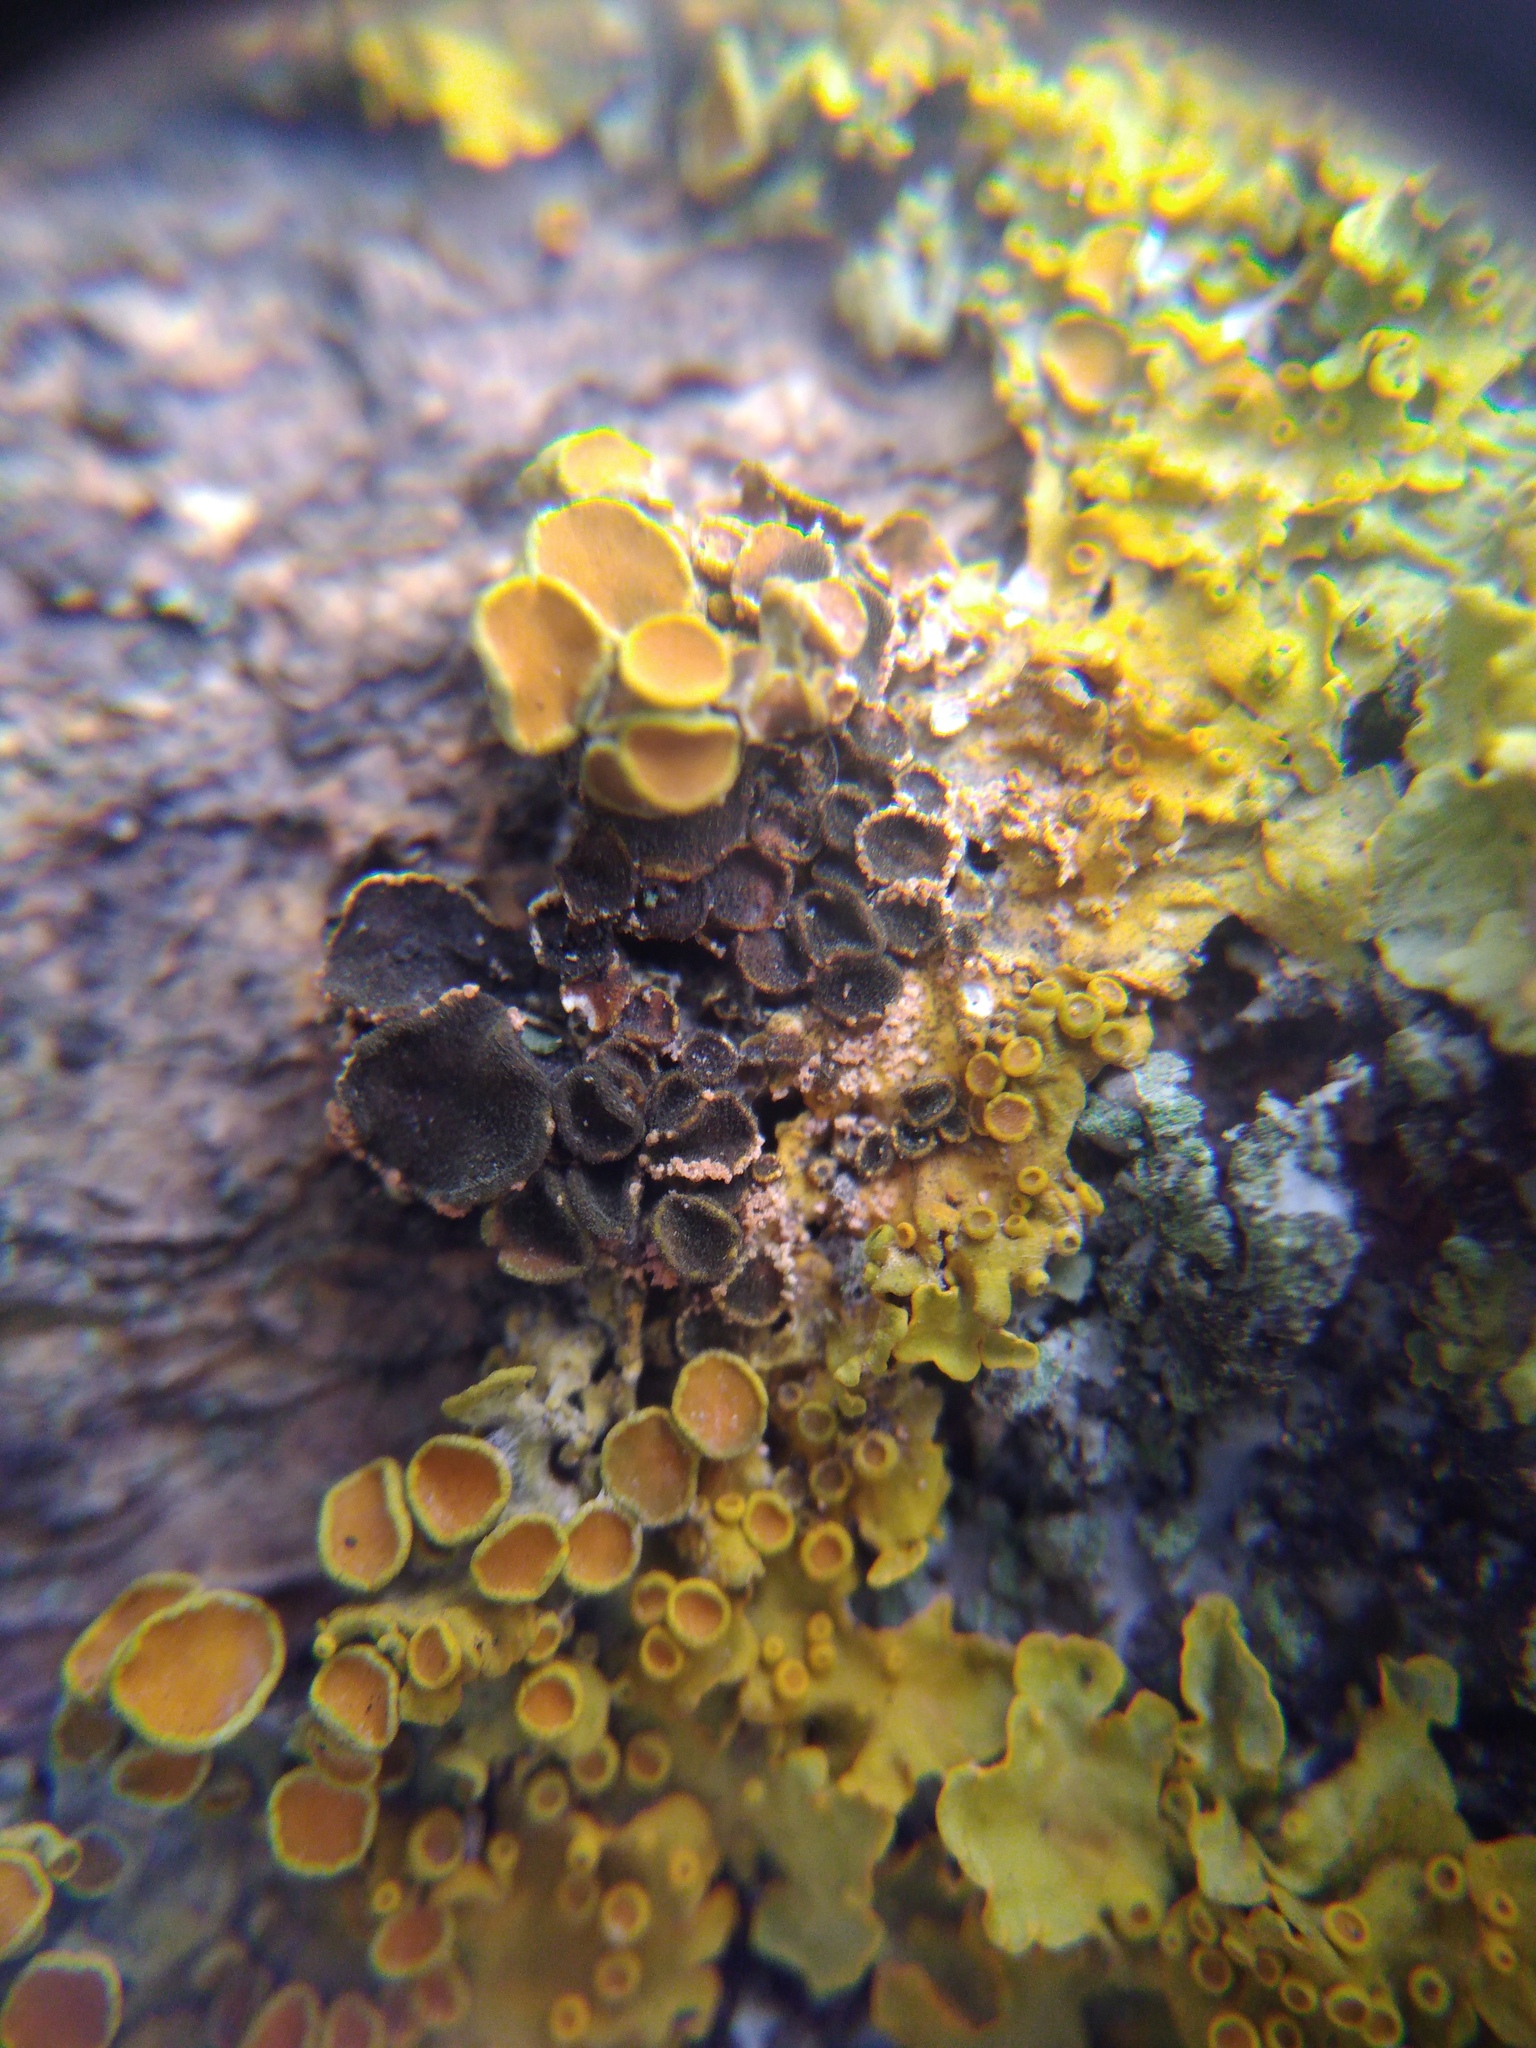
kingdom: Fungi
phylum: Ascomycota
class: Dothideomycetes
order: Mycosphaerellales
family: Teratosphaeriaceae
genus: Xanthoriicola
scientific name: Xanthoriicola physciae
